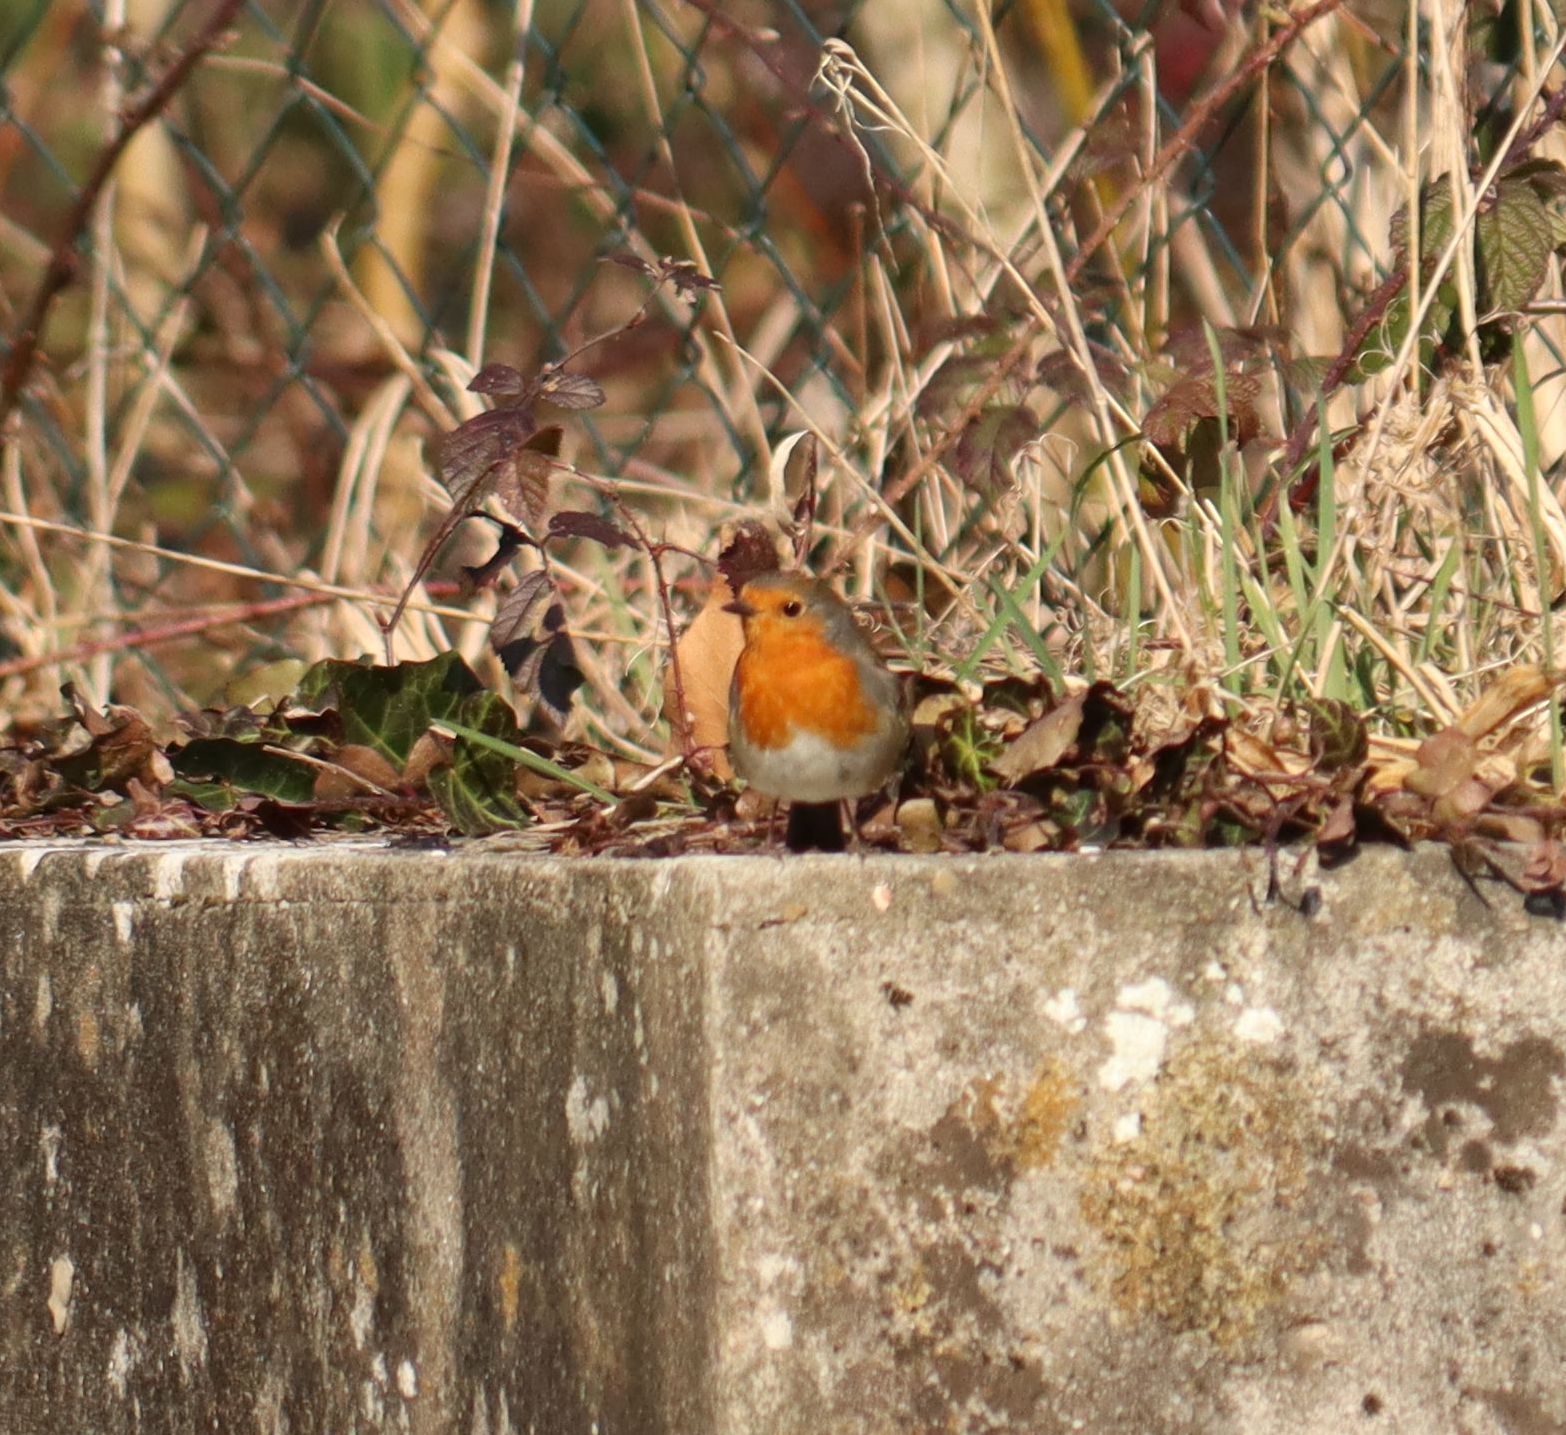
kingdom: Animalia
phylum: Chordata
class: Aves
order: Passeriformes
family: Muscicapidae
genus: Erithacus
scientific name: Erithacus rubecula
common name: European robin
